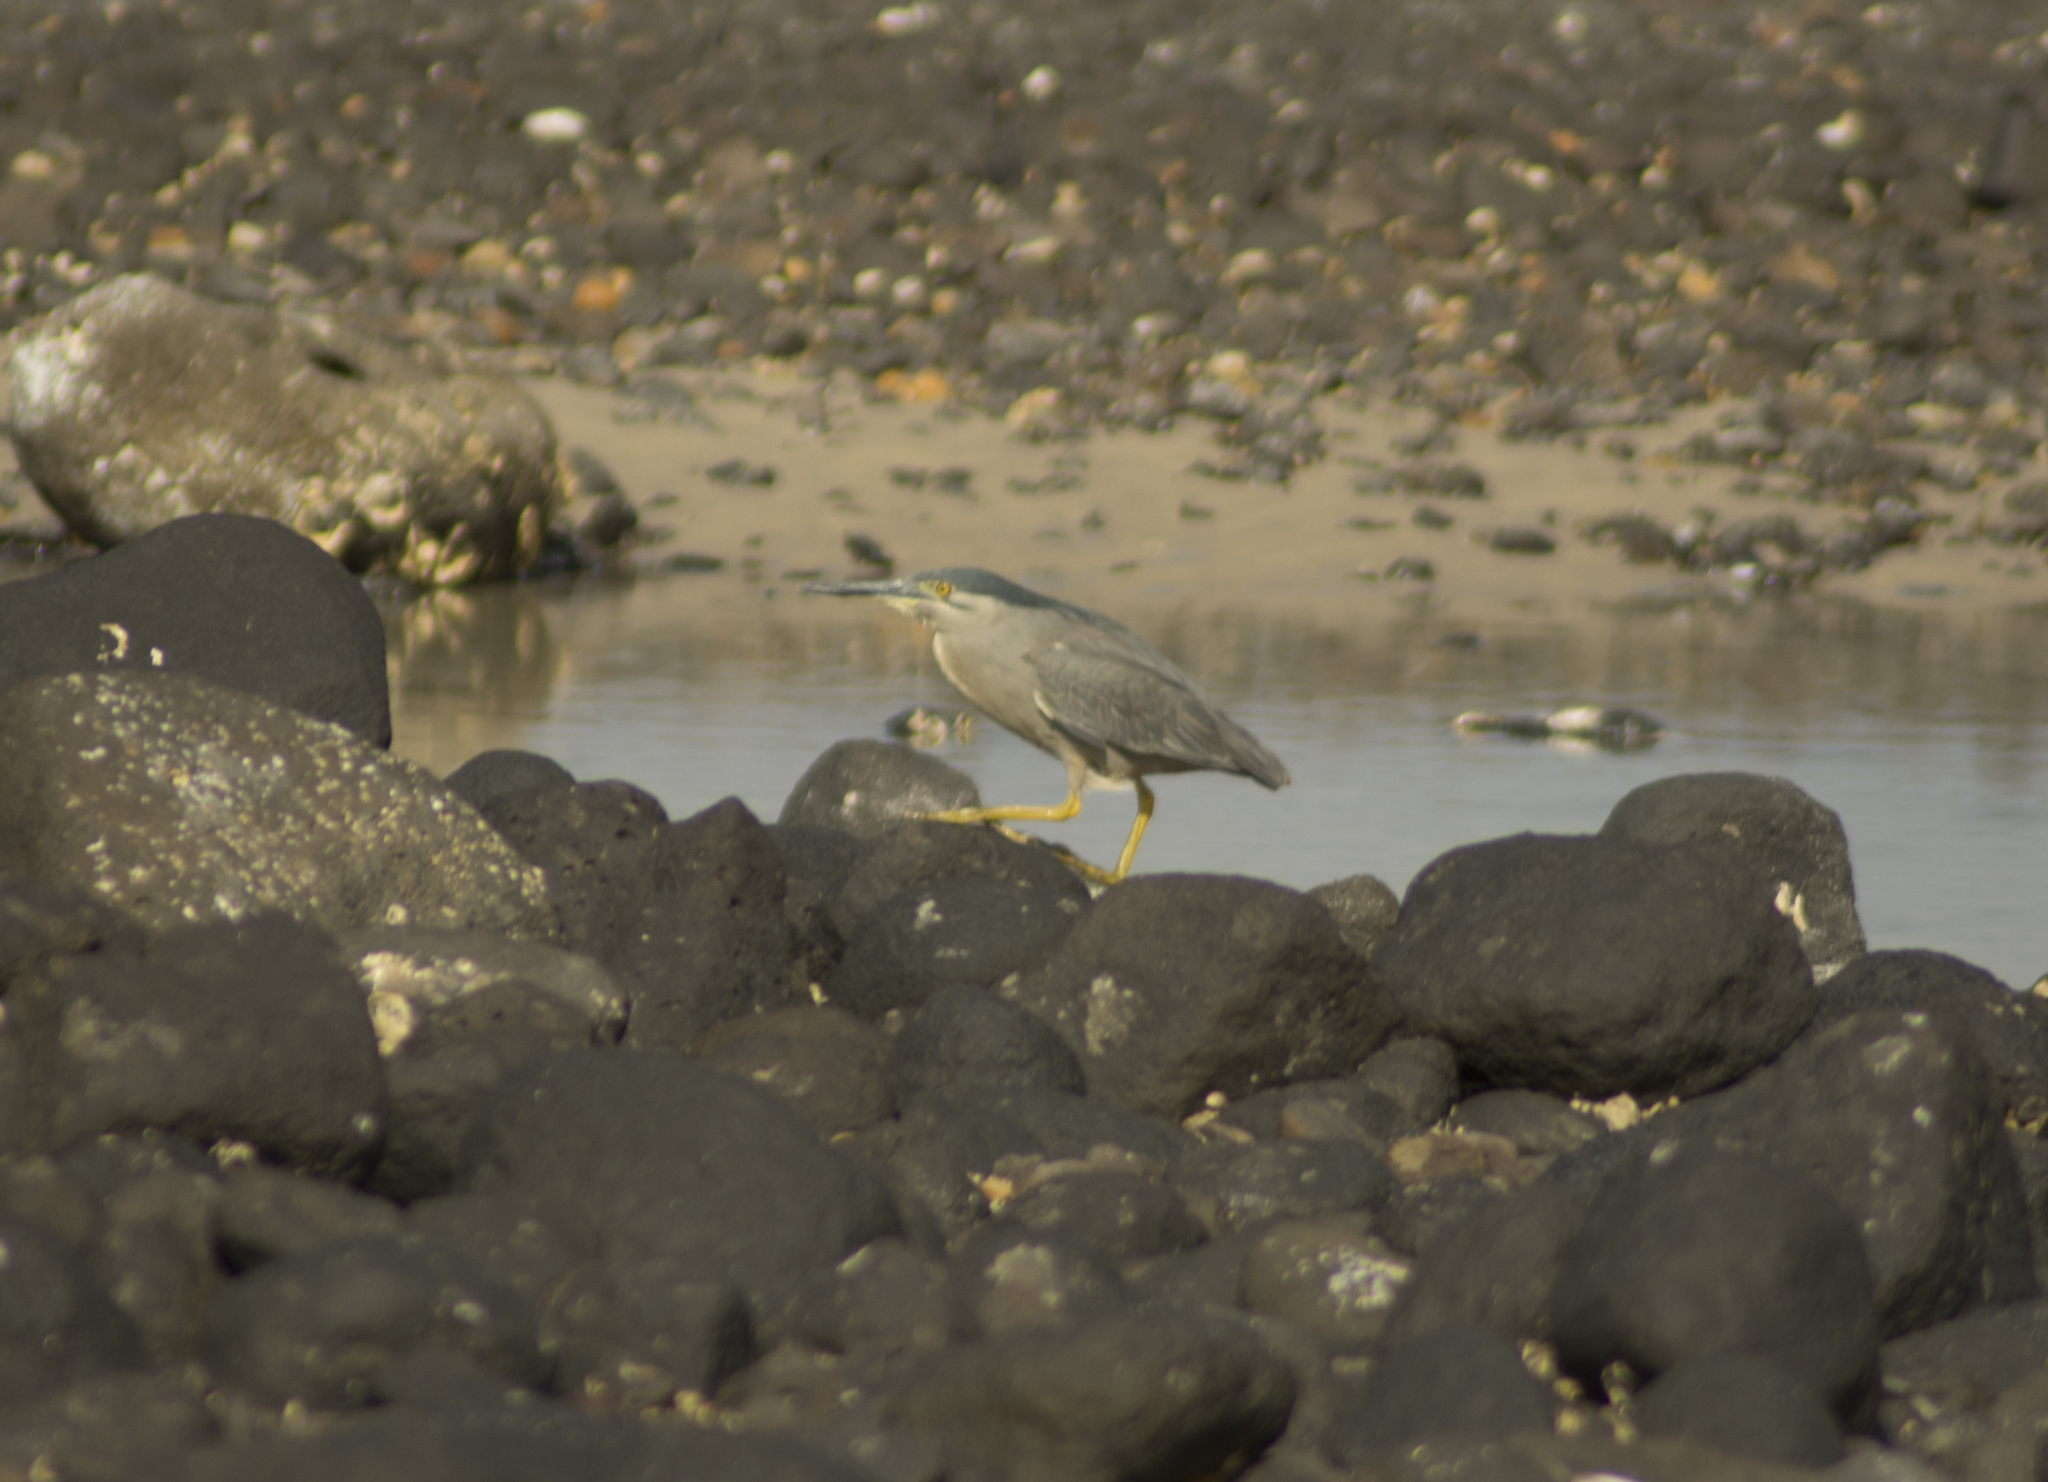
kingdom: Animalia
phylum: Chordata
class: Aves
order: Pelecaniformes
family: Ardeidae
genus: Butorides
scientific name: Butorides striata
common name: Striated heron
